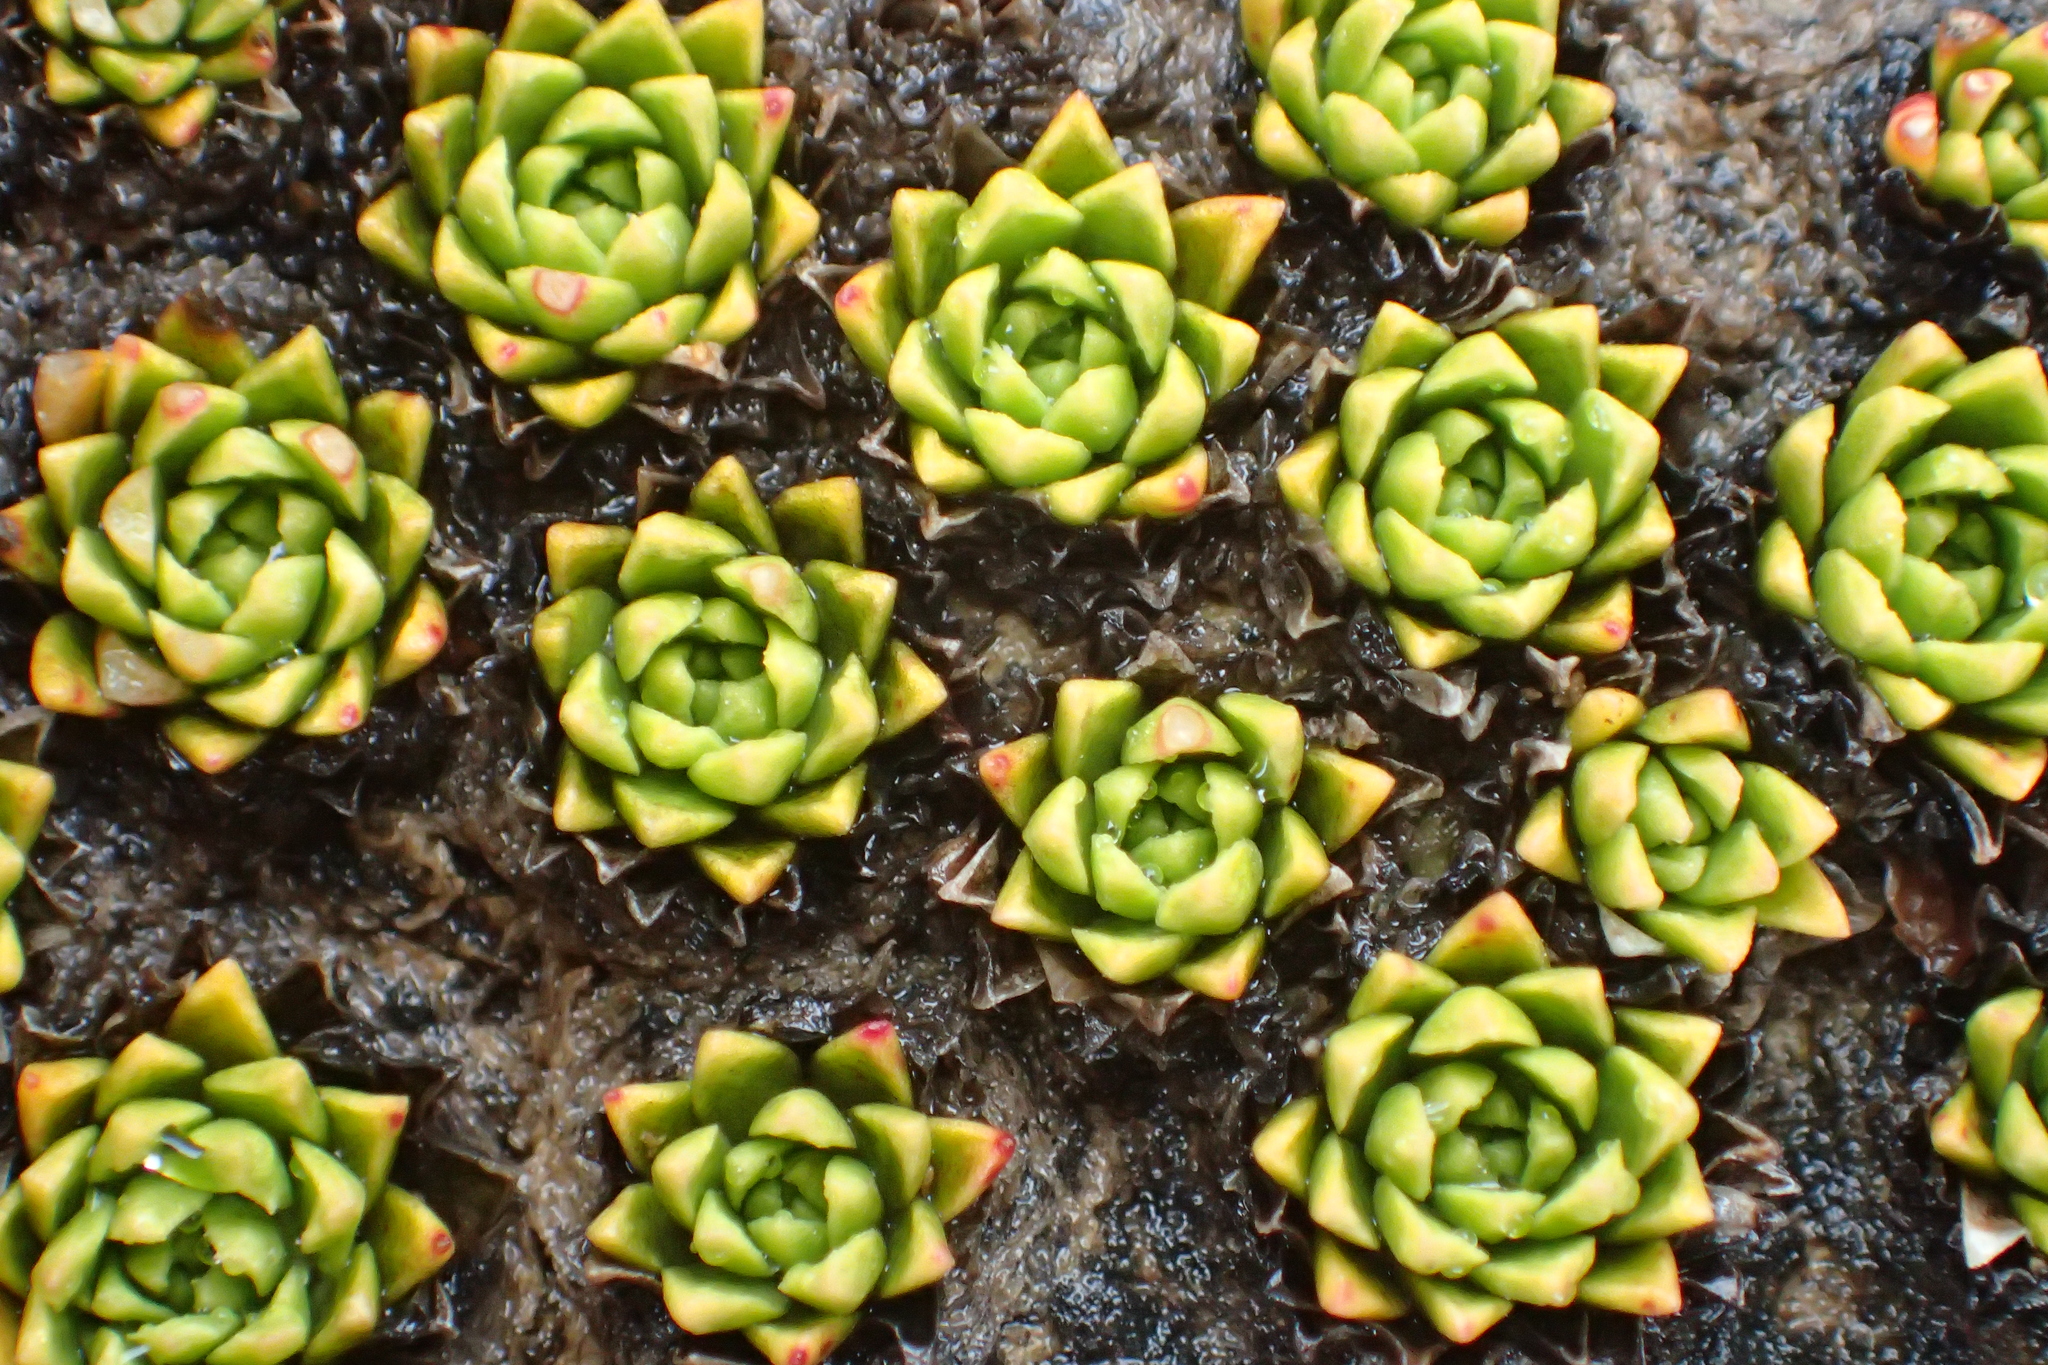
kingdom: Plantae
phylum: Tracheophyta
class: Magnoliopsida
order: Caryophyllales
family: Montiaceae
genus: Hectorella
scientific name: Hectorella caespitosa
